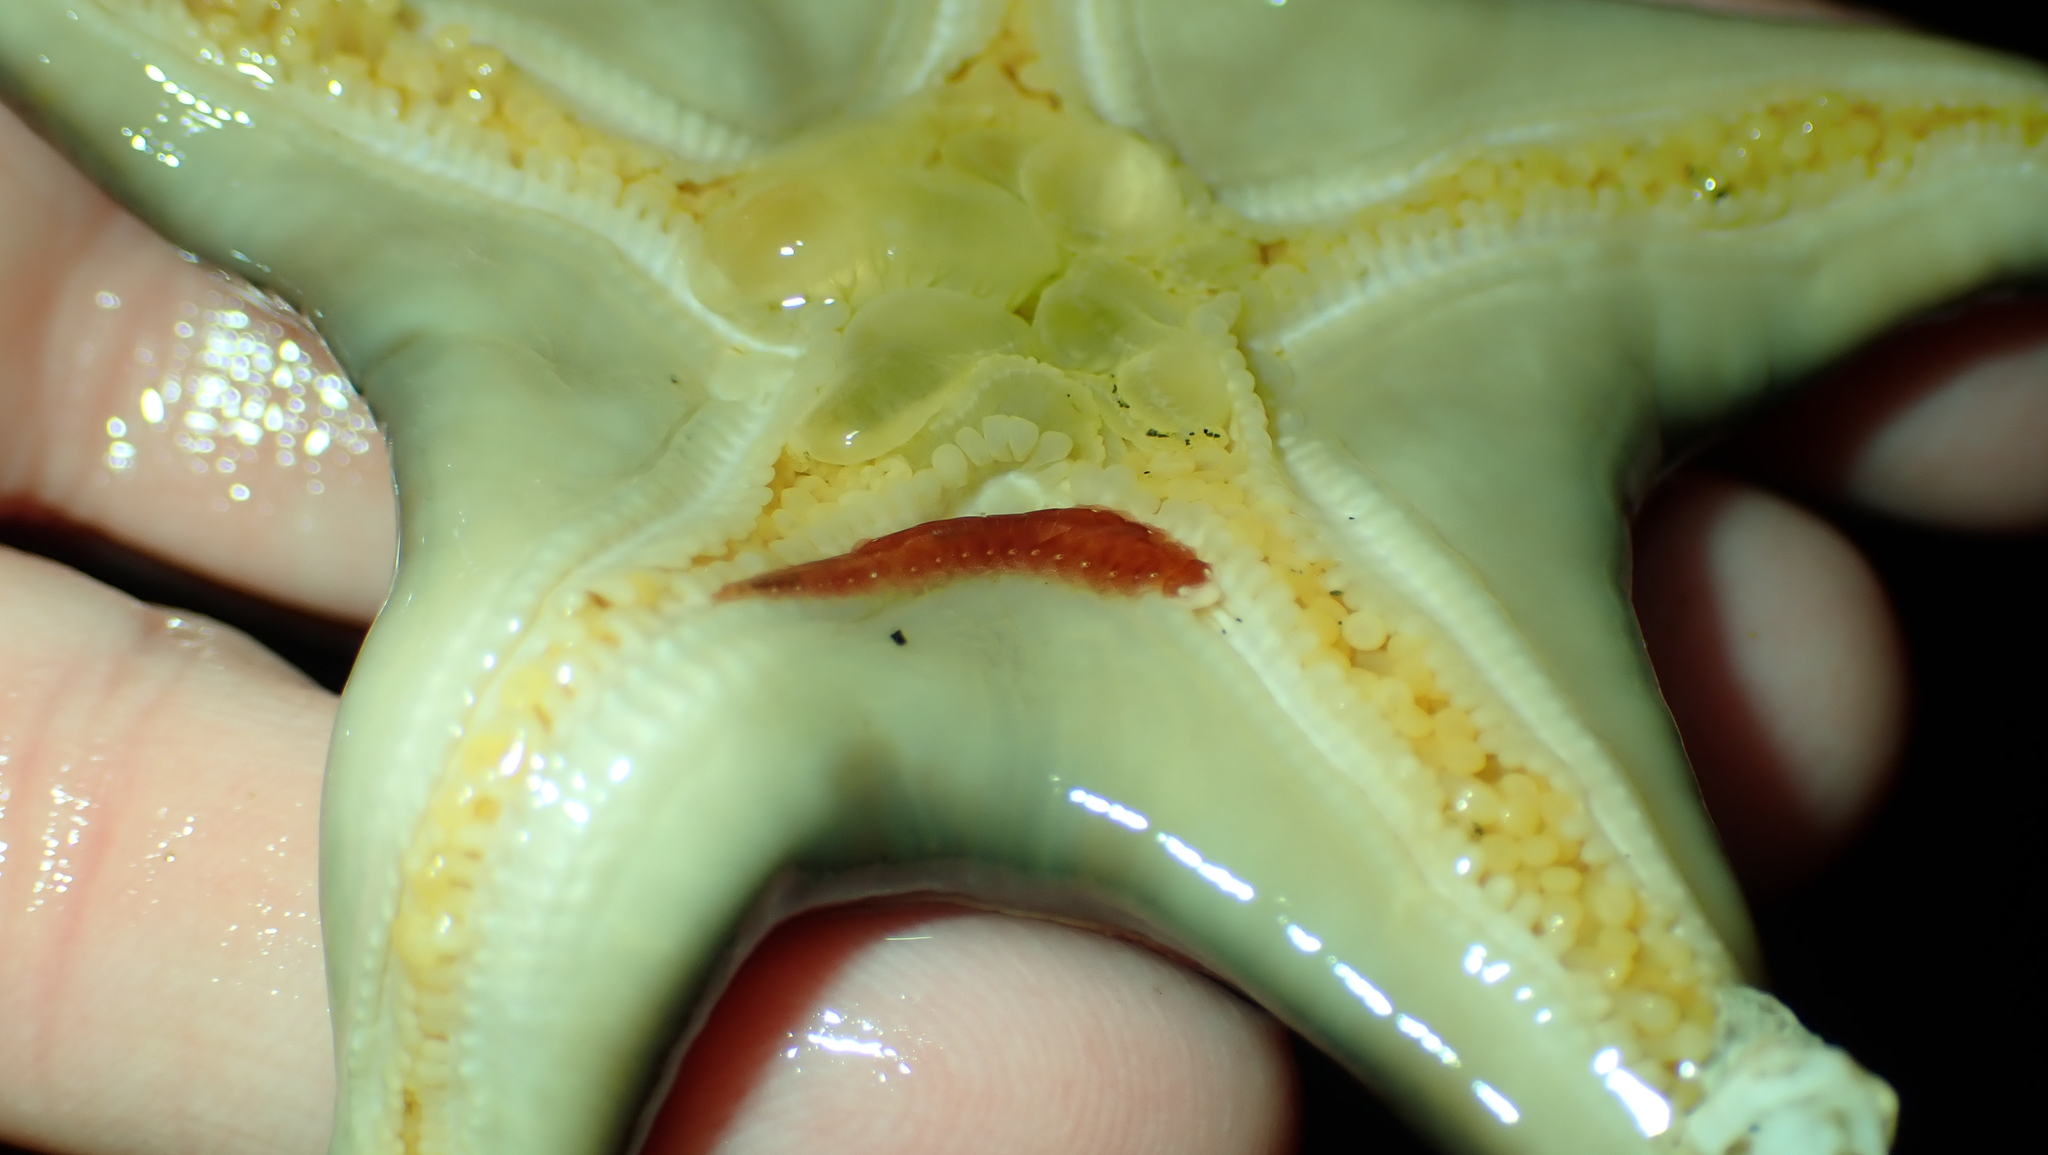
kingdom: Animalia
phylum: Annelida
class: Polychaeta
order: Phyllodocida
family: Polynoidae
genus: Arctonoe
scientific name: Arctonoe pulchra
